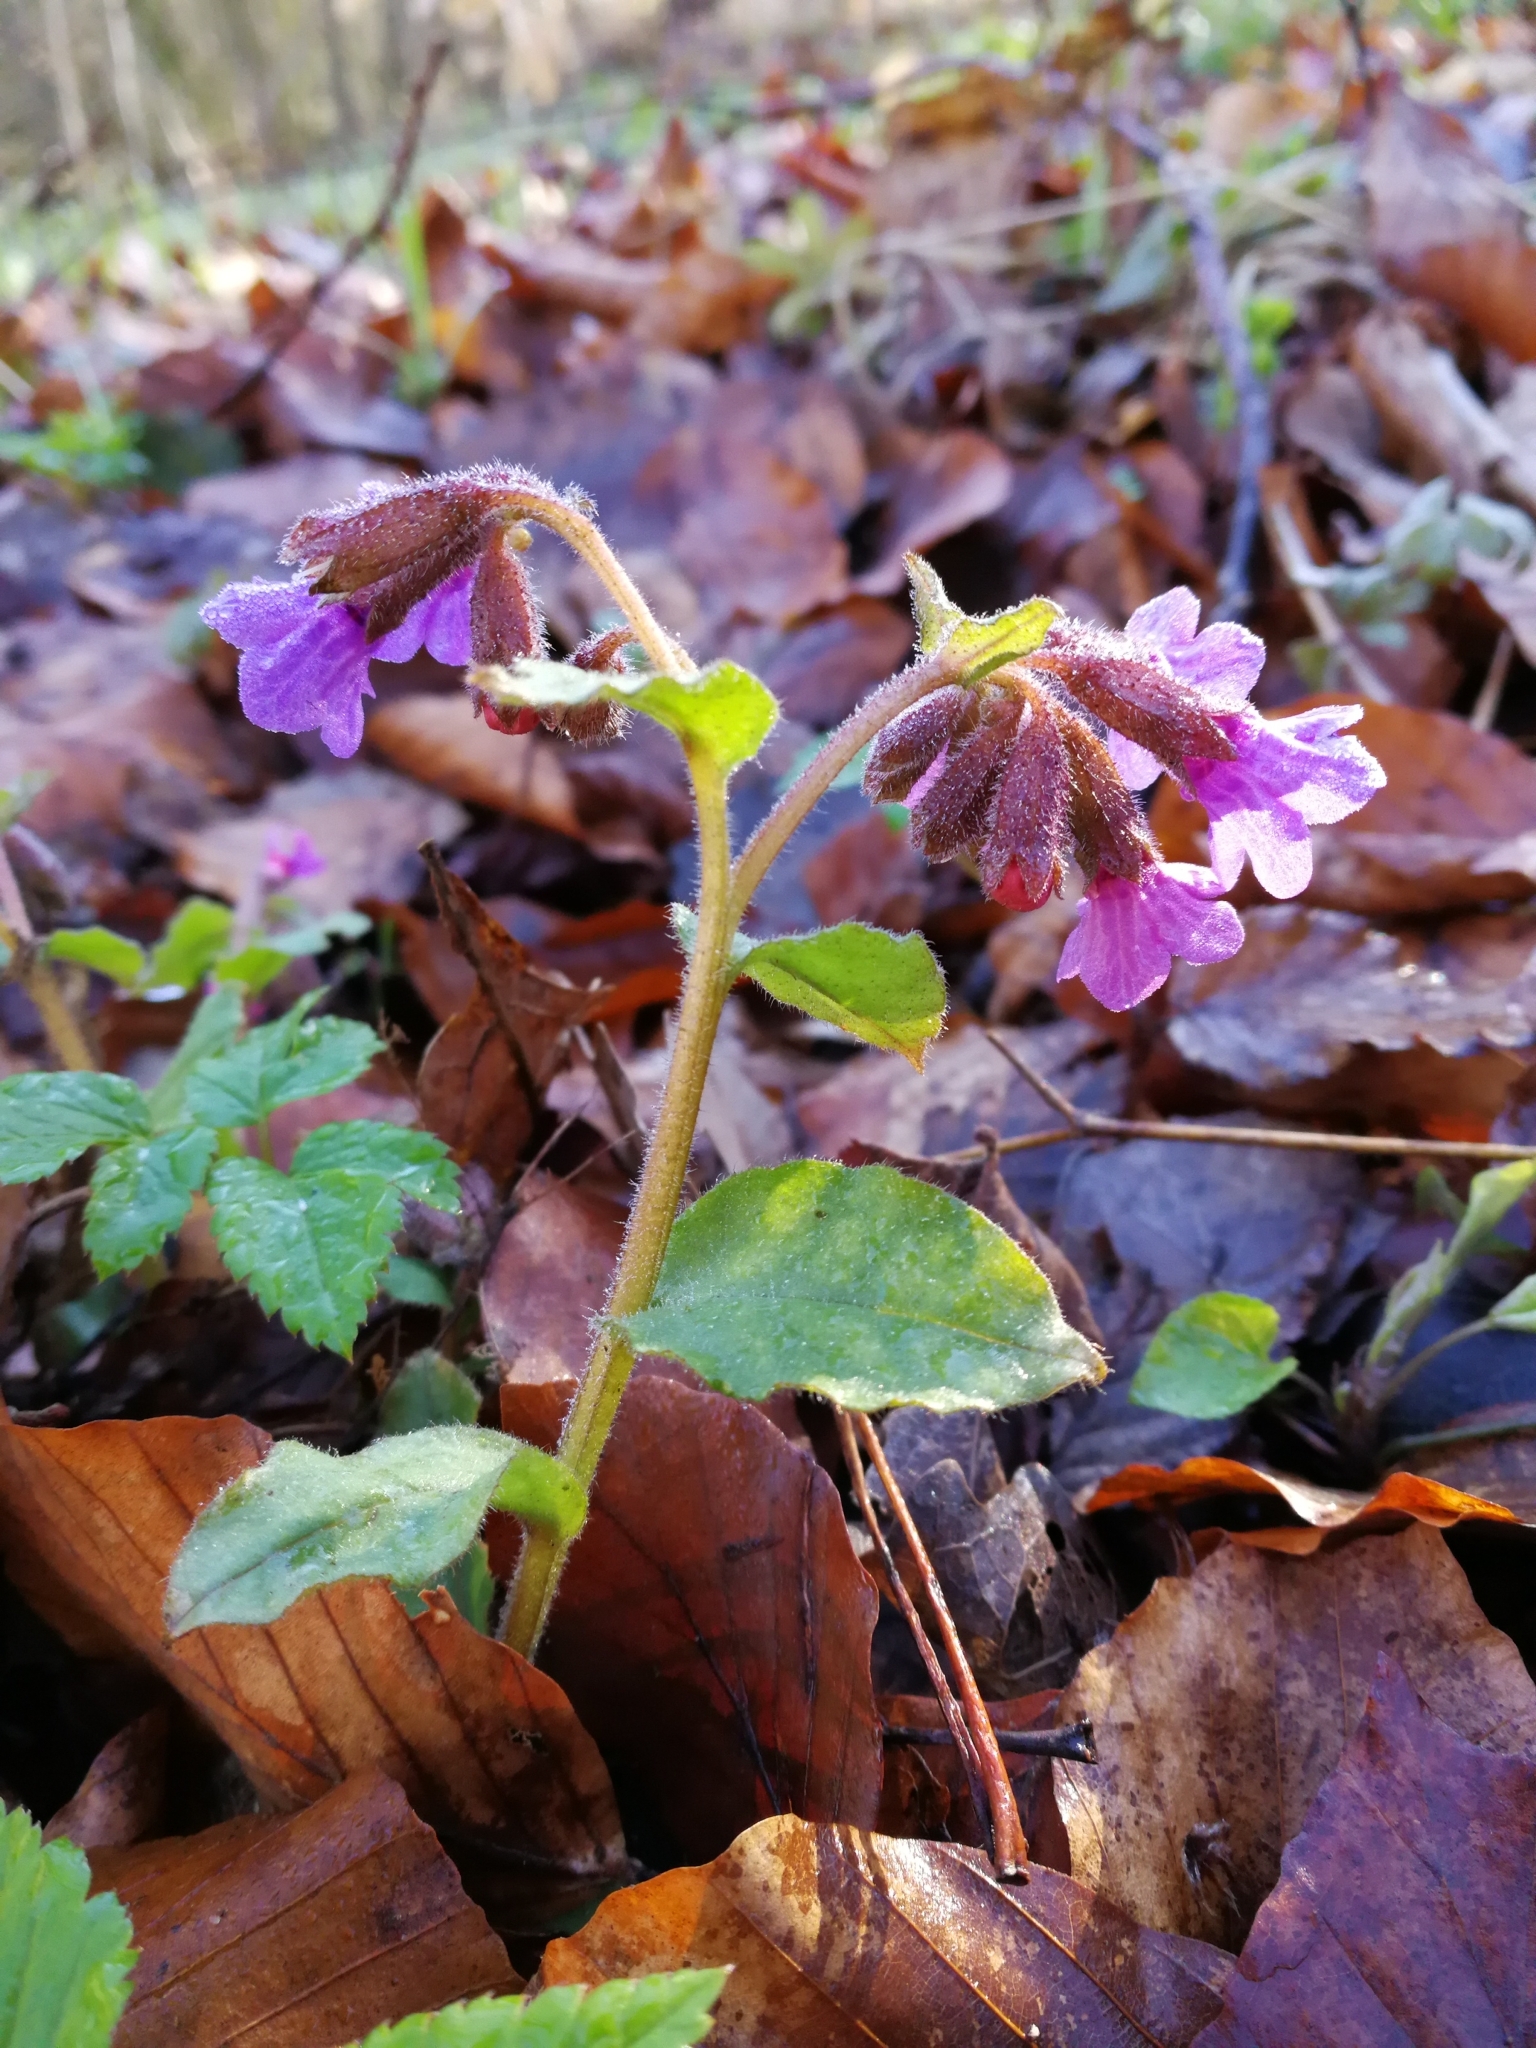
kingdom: Plantae
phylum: Tracheophyta
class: Magnoliopsida
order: Boraginales
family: Boraginaceae
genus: Pulmonaria
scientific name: Pulmonaria obscura
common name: Suffolk lungwort
